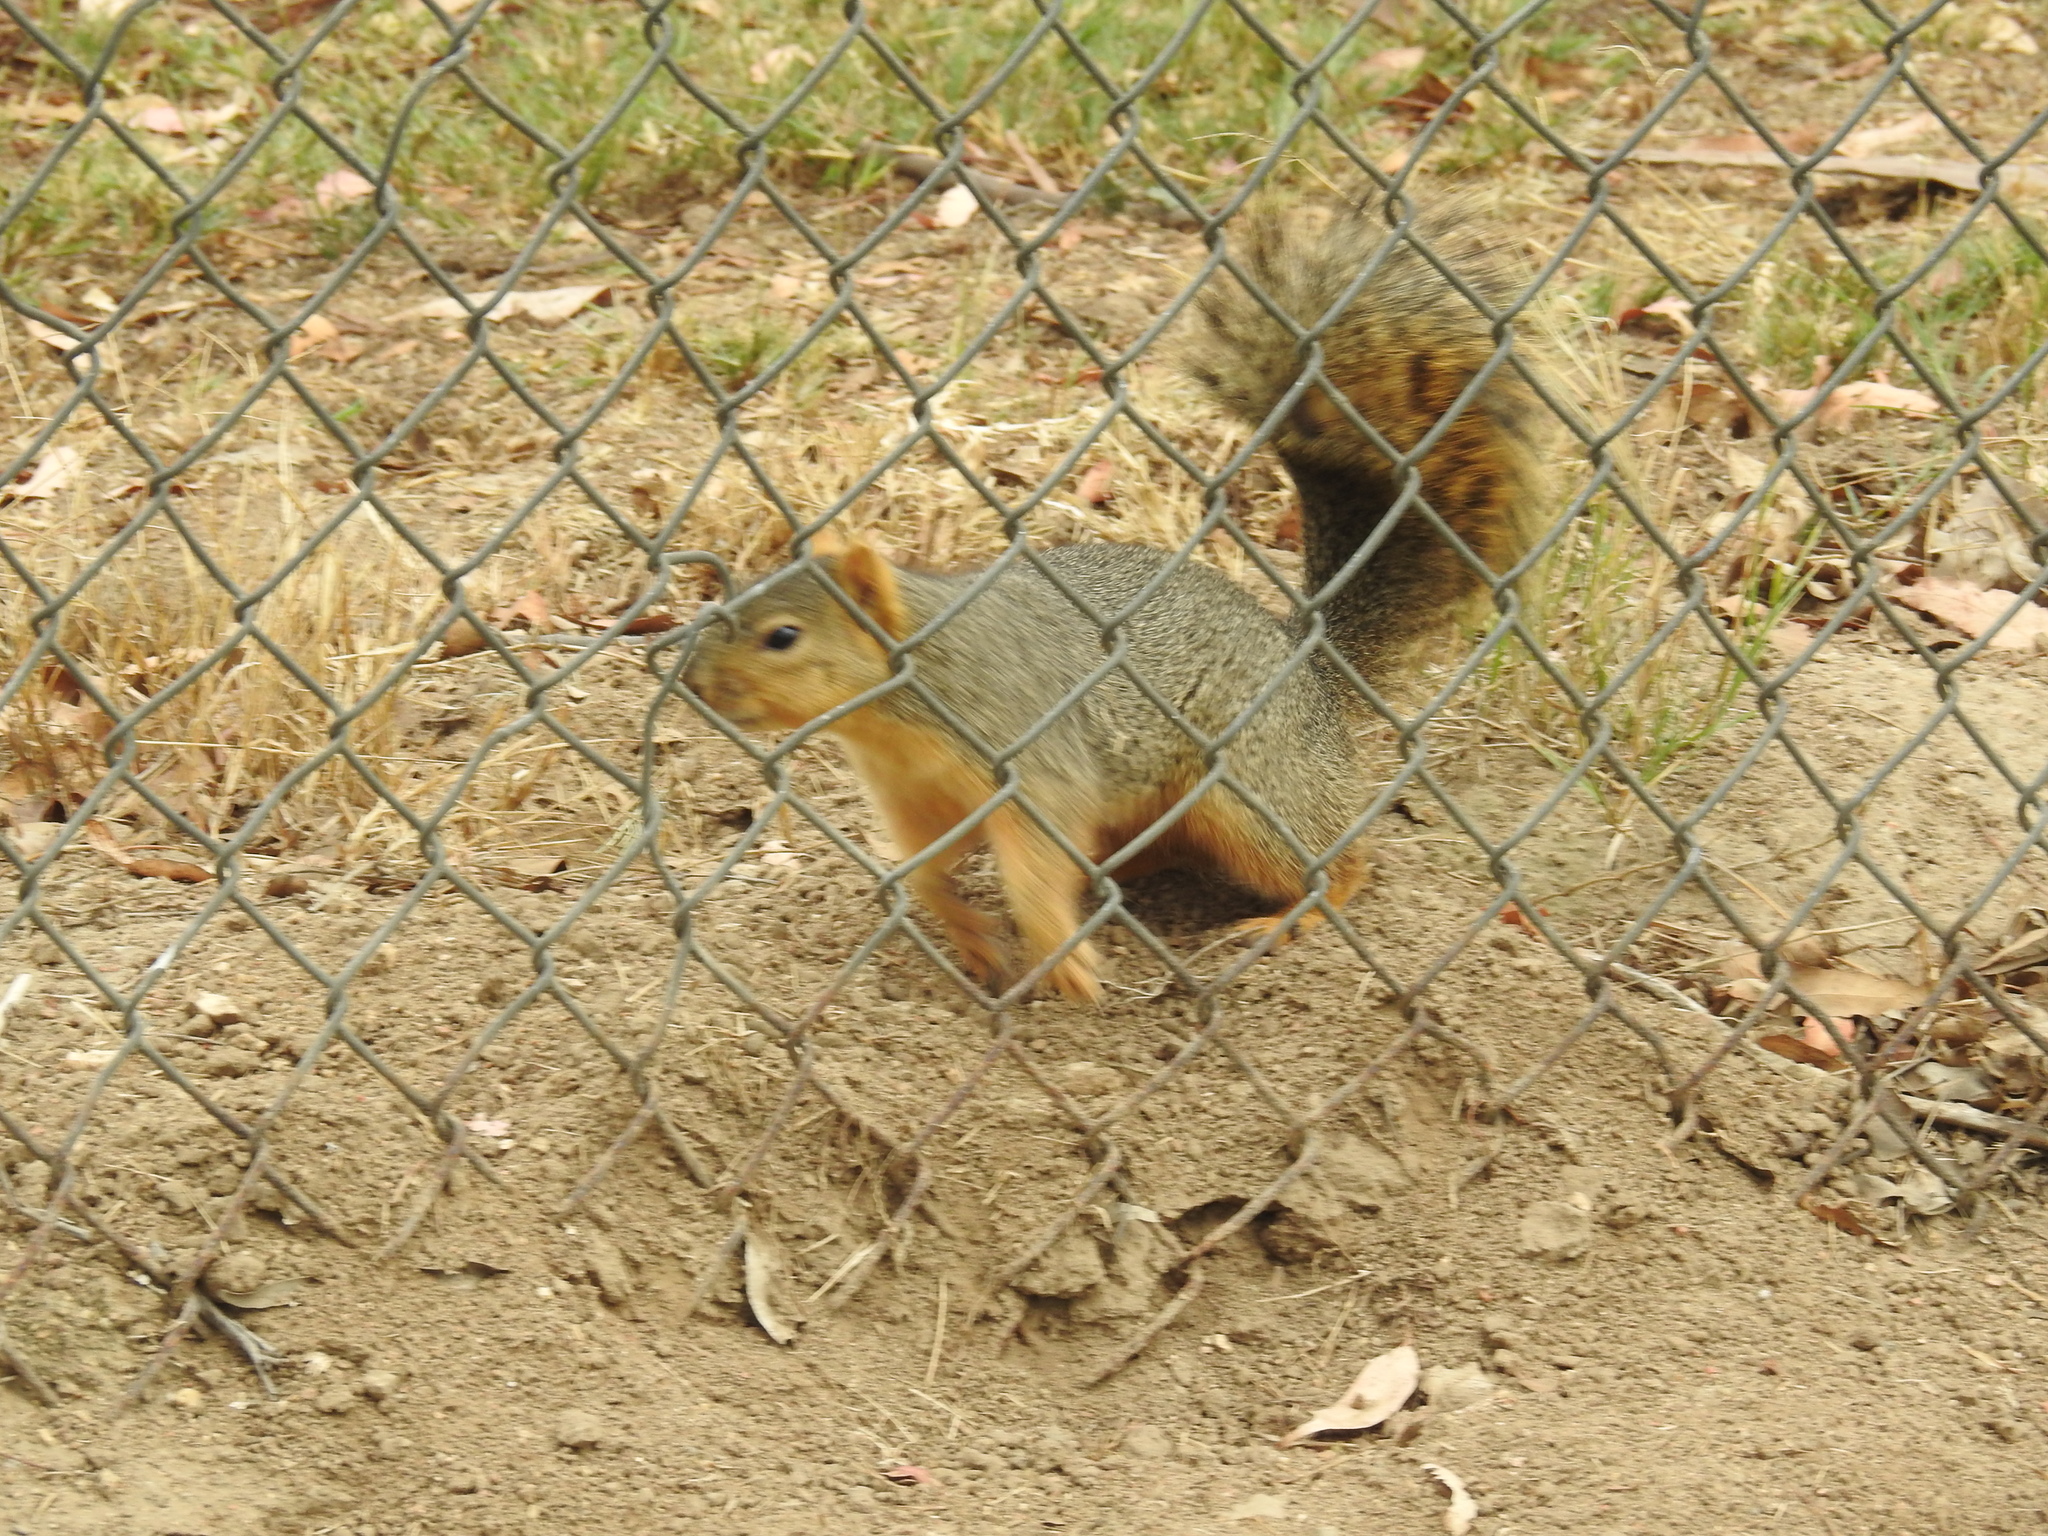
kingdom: Animalia
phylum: Chordata
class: Mammalia
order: Rodentia
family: Sciuridae
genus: Sciurus
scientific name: Sciurus niger
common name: Fox squirrel
